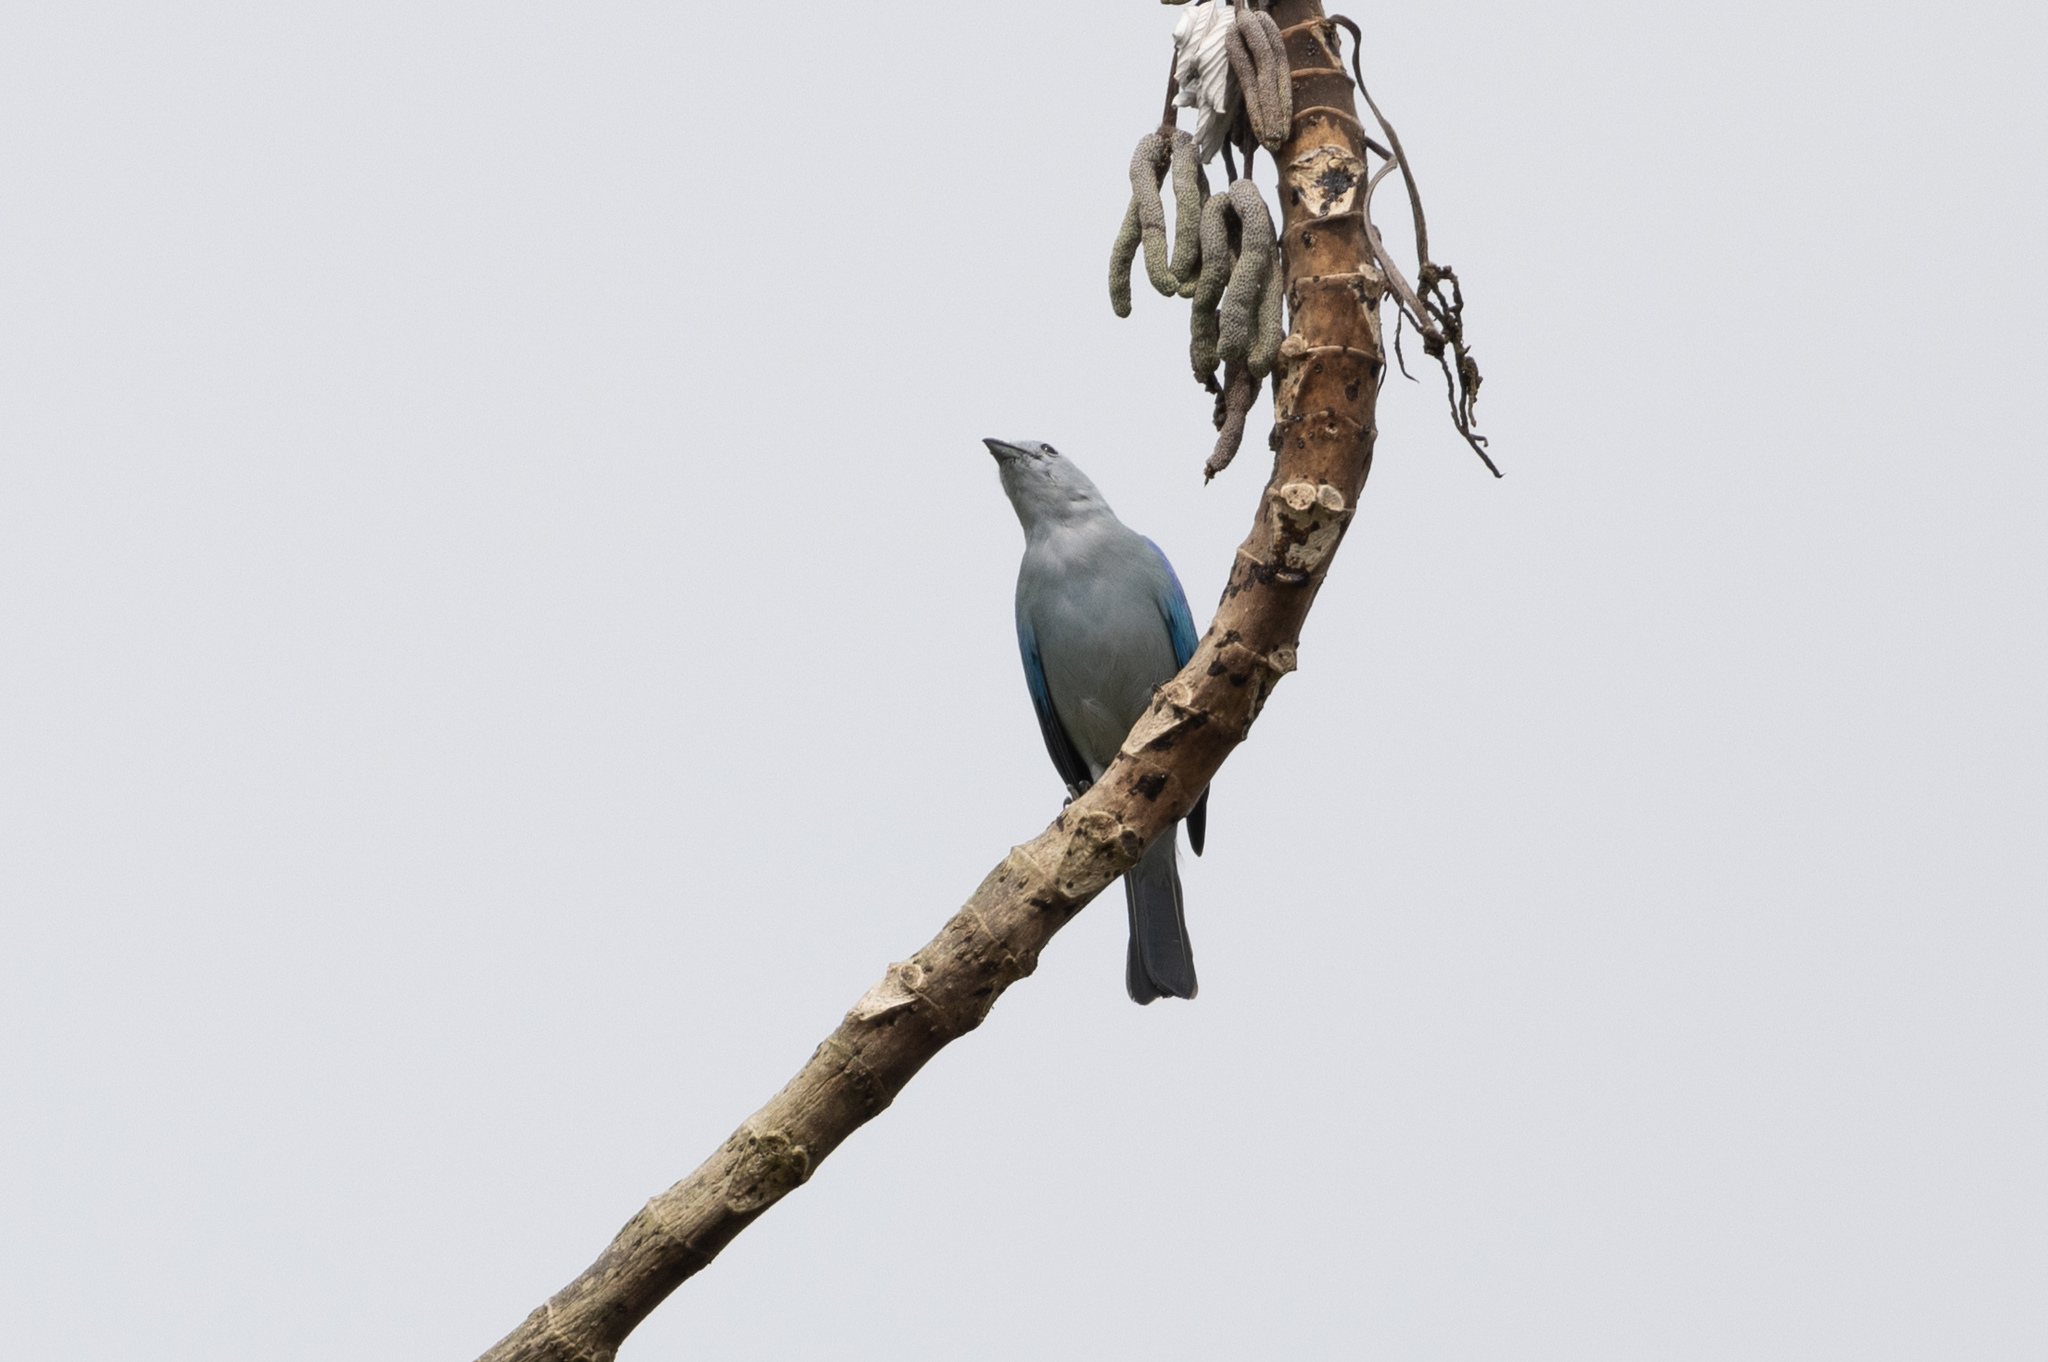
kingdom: Animalia
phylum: Chordata
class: Aves
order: Passeriformes
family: Thraupidae
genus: Thraupis
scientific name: Thraupis episcopus
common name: Blue-grey tanager
